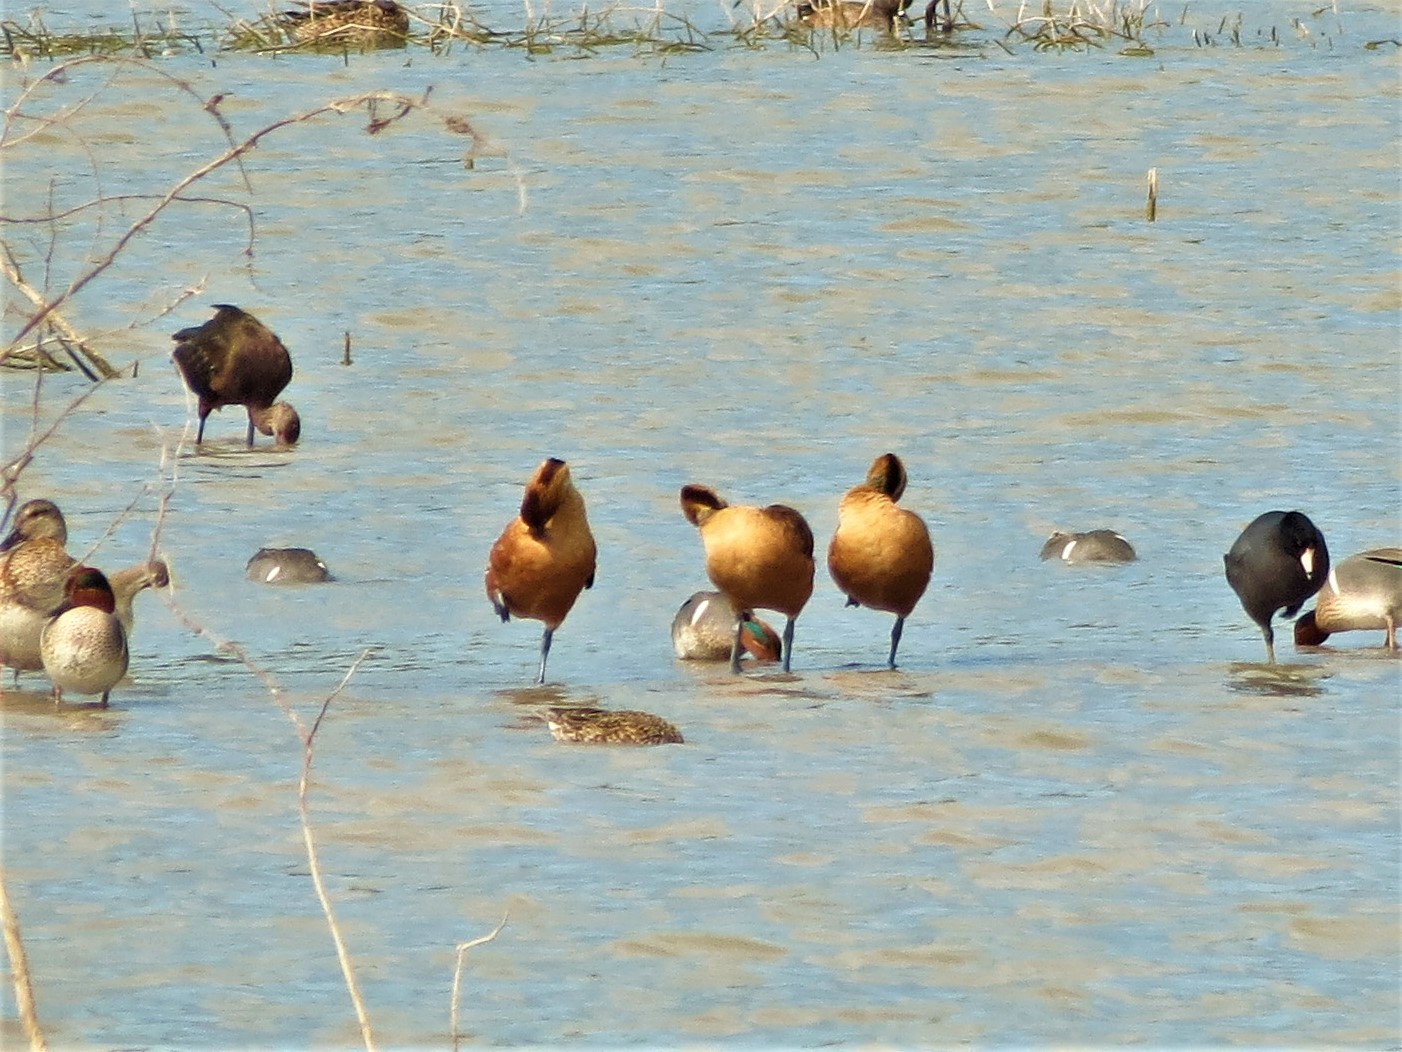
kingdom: Animalia
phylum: Chordata
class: Aves
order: Anseriformes
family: Anatidae
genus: Dendrocygna
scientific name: Dendrocygna bicolor
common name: Fulvous whistling duck
